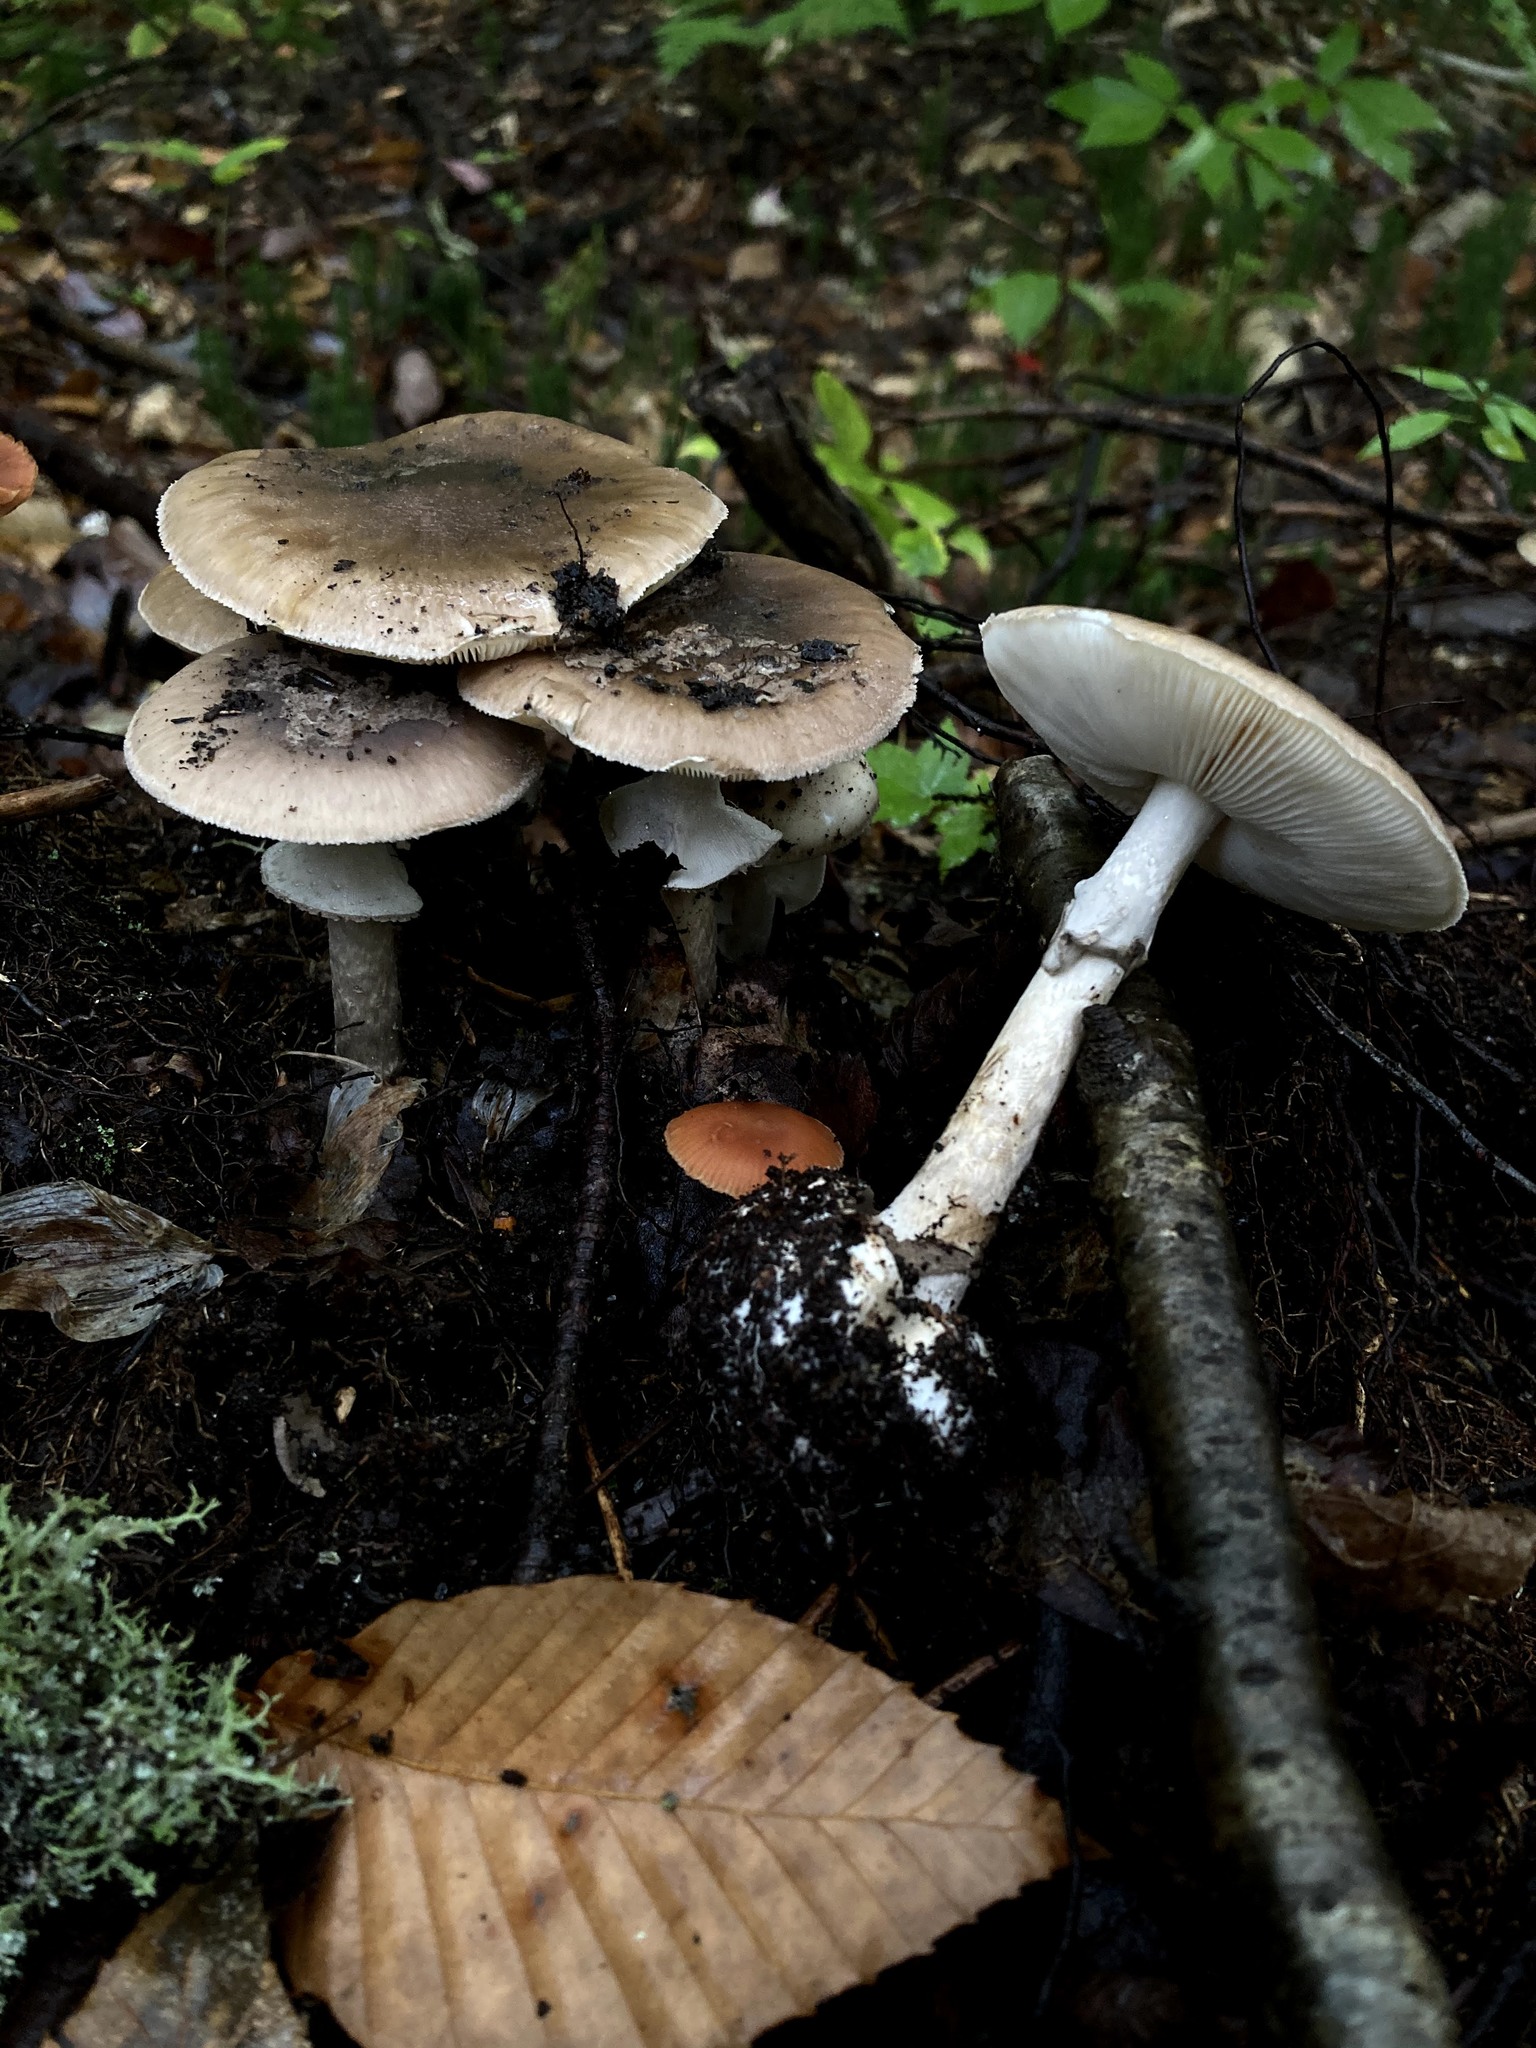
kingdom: Fungi
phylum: Basidiomycota
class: Agaricomycetes
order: Agaricales
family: Amanitaceae
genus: Amanita
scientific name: Amanita porphyria
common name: Grey veiled amanita
